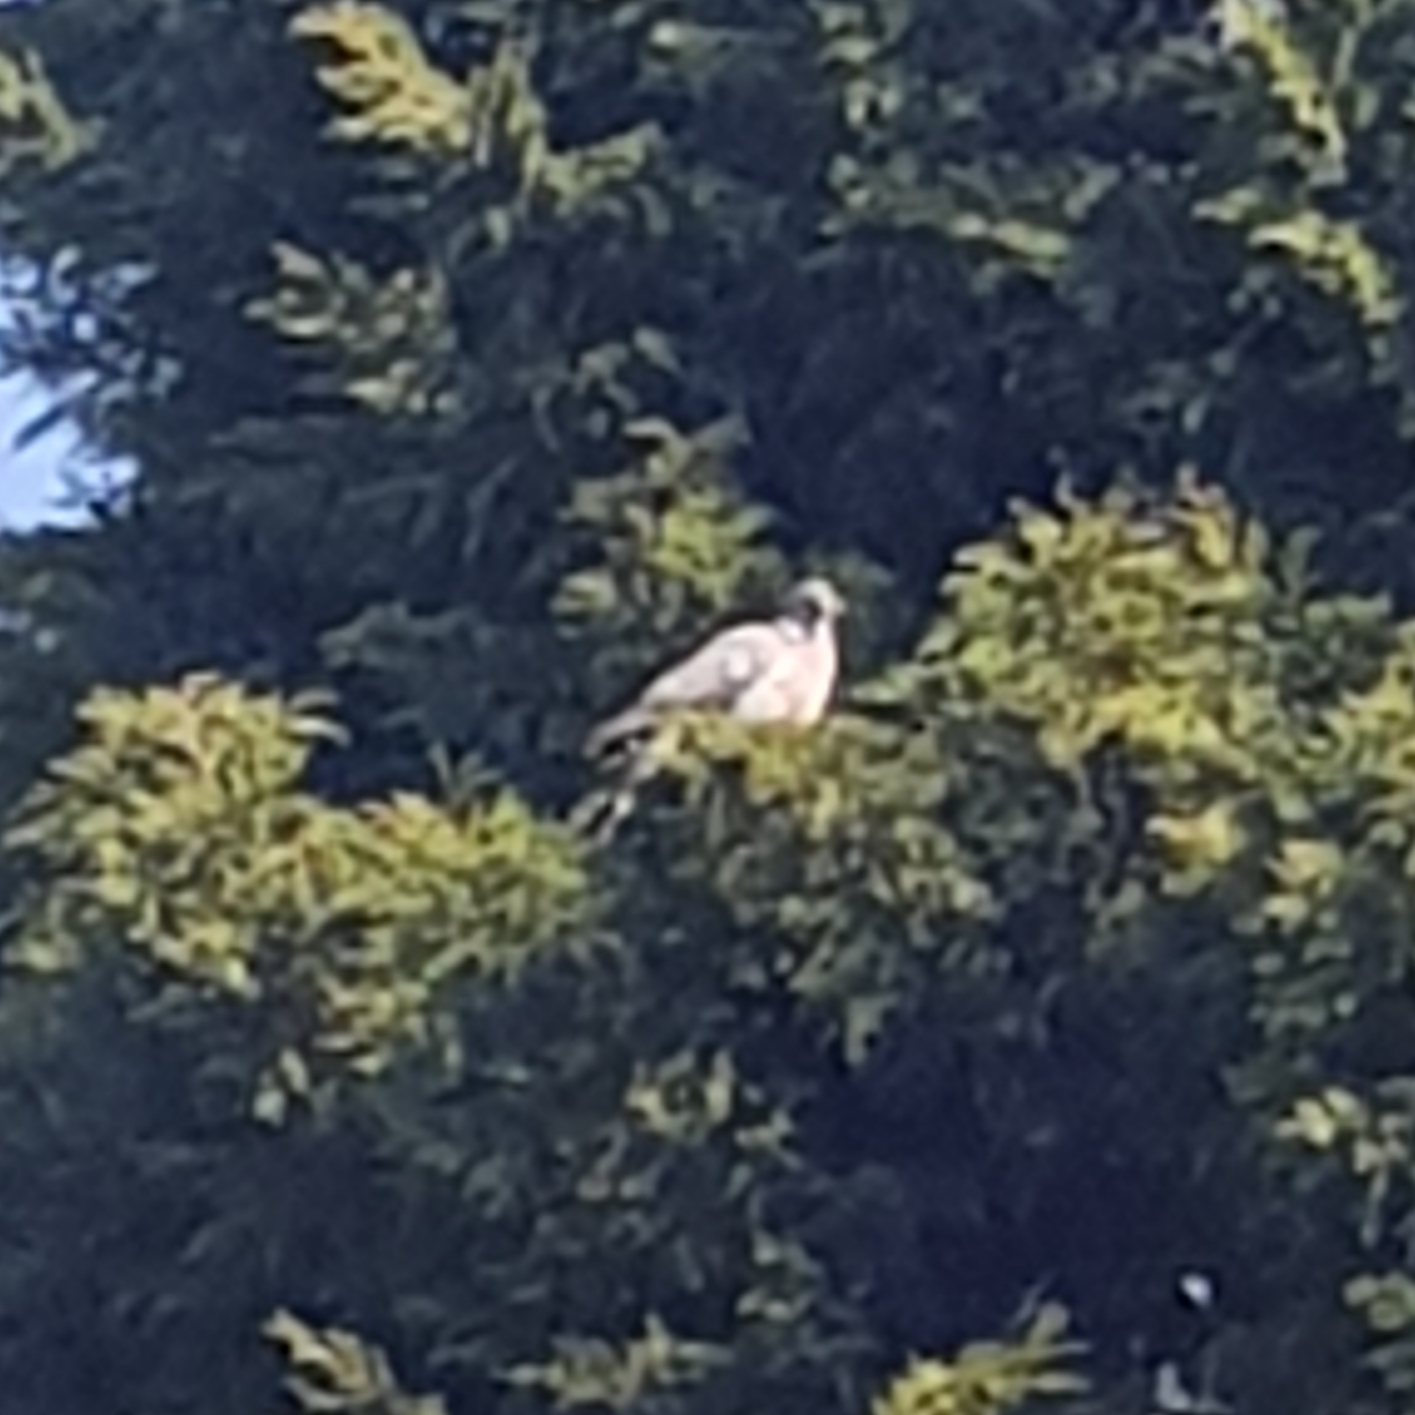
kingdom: Animalia
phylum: Chordata
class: Aves
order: Columbiformes
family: Columbidae
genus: Columba
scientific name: Columba palumbus
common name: Common wood pigeon
